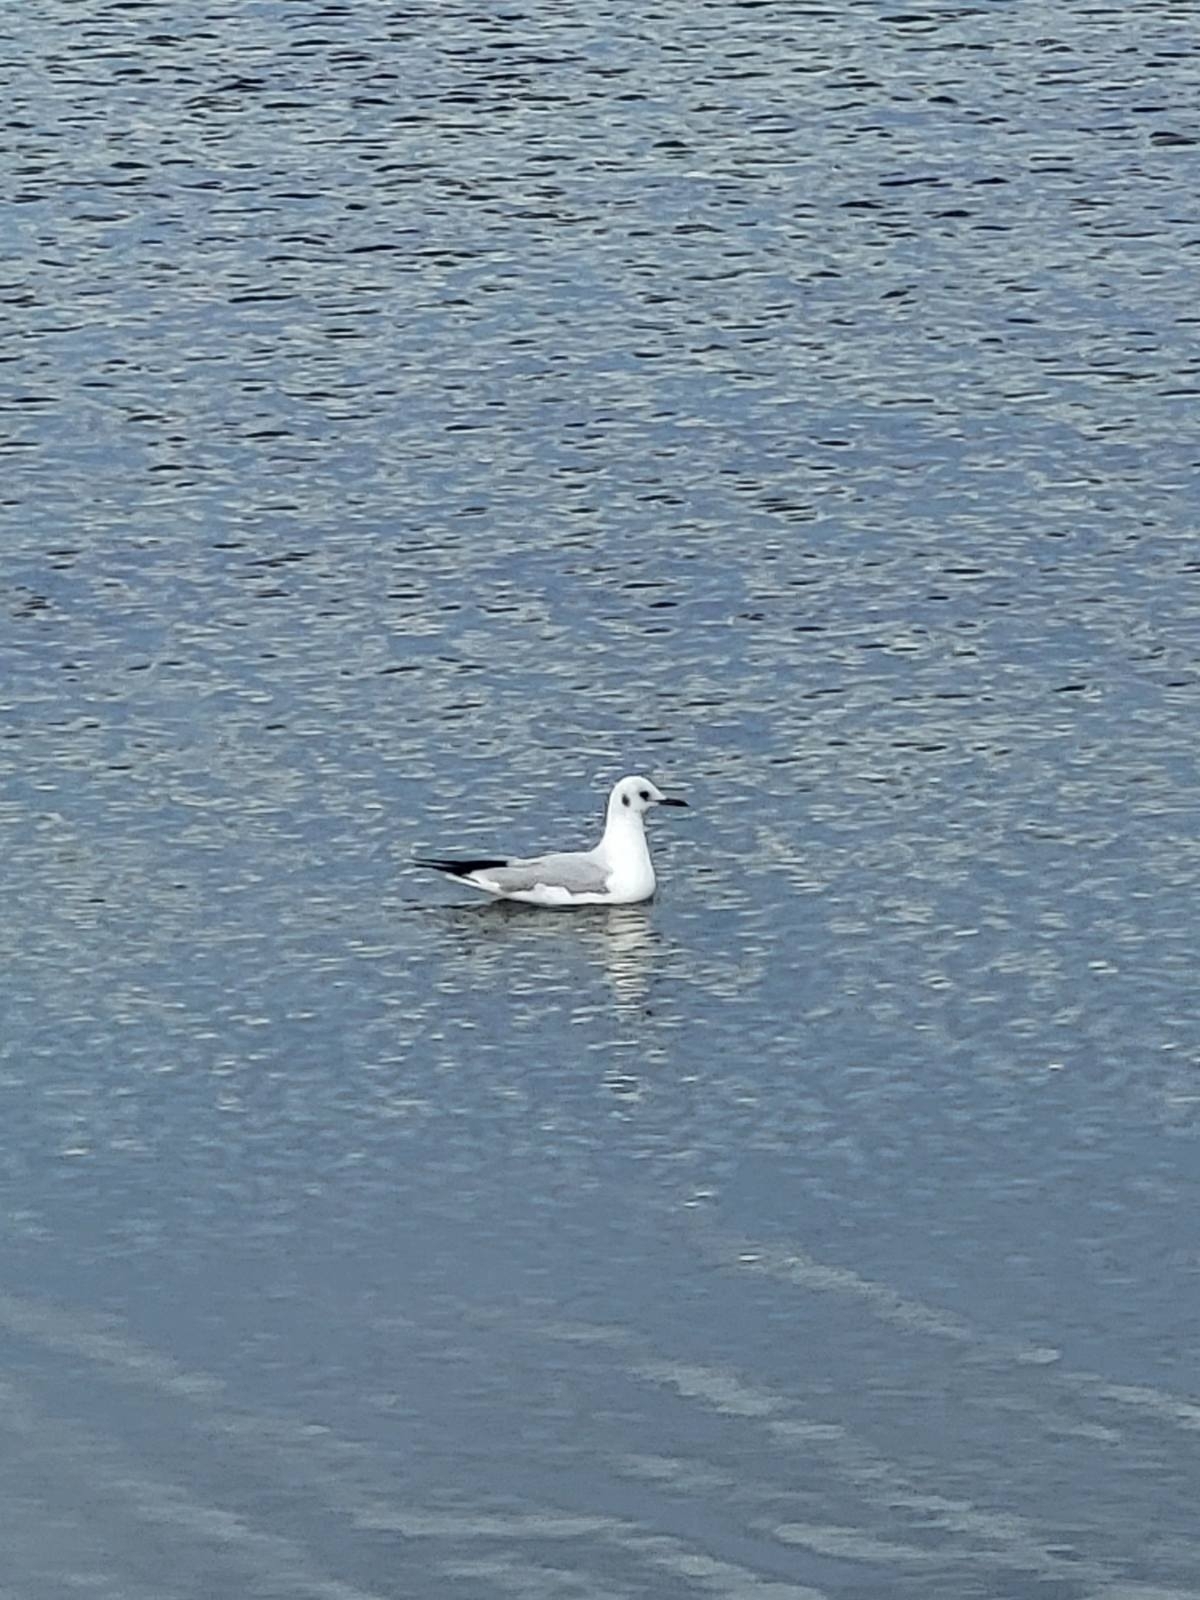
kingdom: Animalia
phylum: Chordata
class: Aves
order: Charadriiformes
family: Laridae
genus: Chroicocephalus
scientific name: Chroicocephalus ridibundus
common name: Black-headed gull
